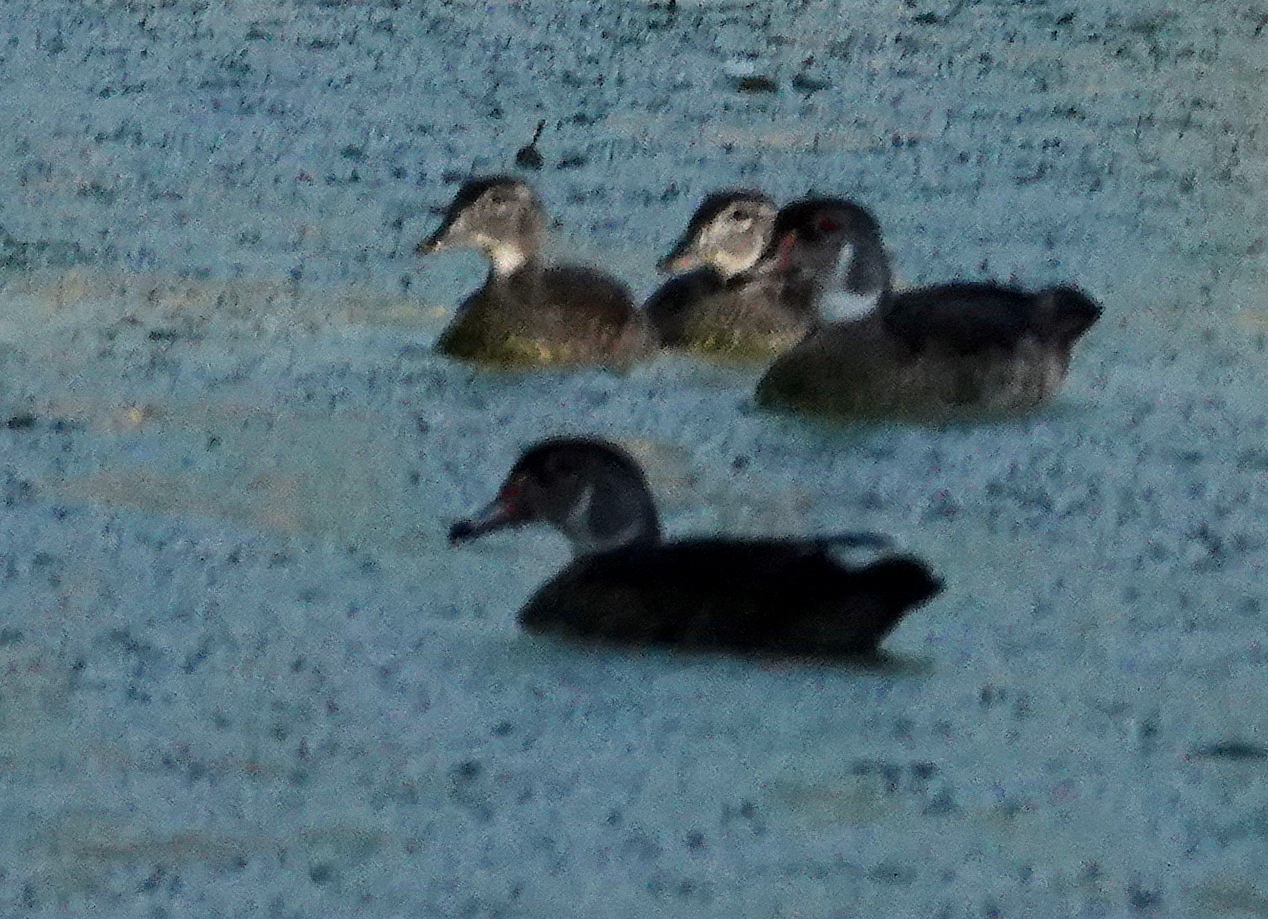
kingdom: Animalia
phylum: Chordata
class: Aves
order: Anseriformes
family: Anatidae
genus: Aix
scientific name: Aix sponsa
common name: Wood duck
